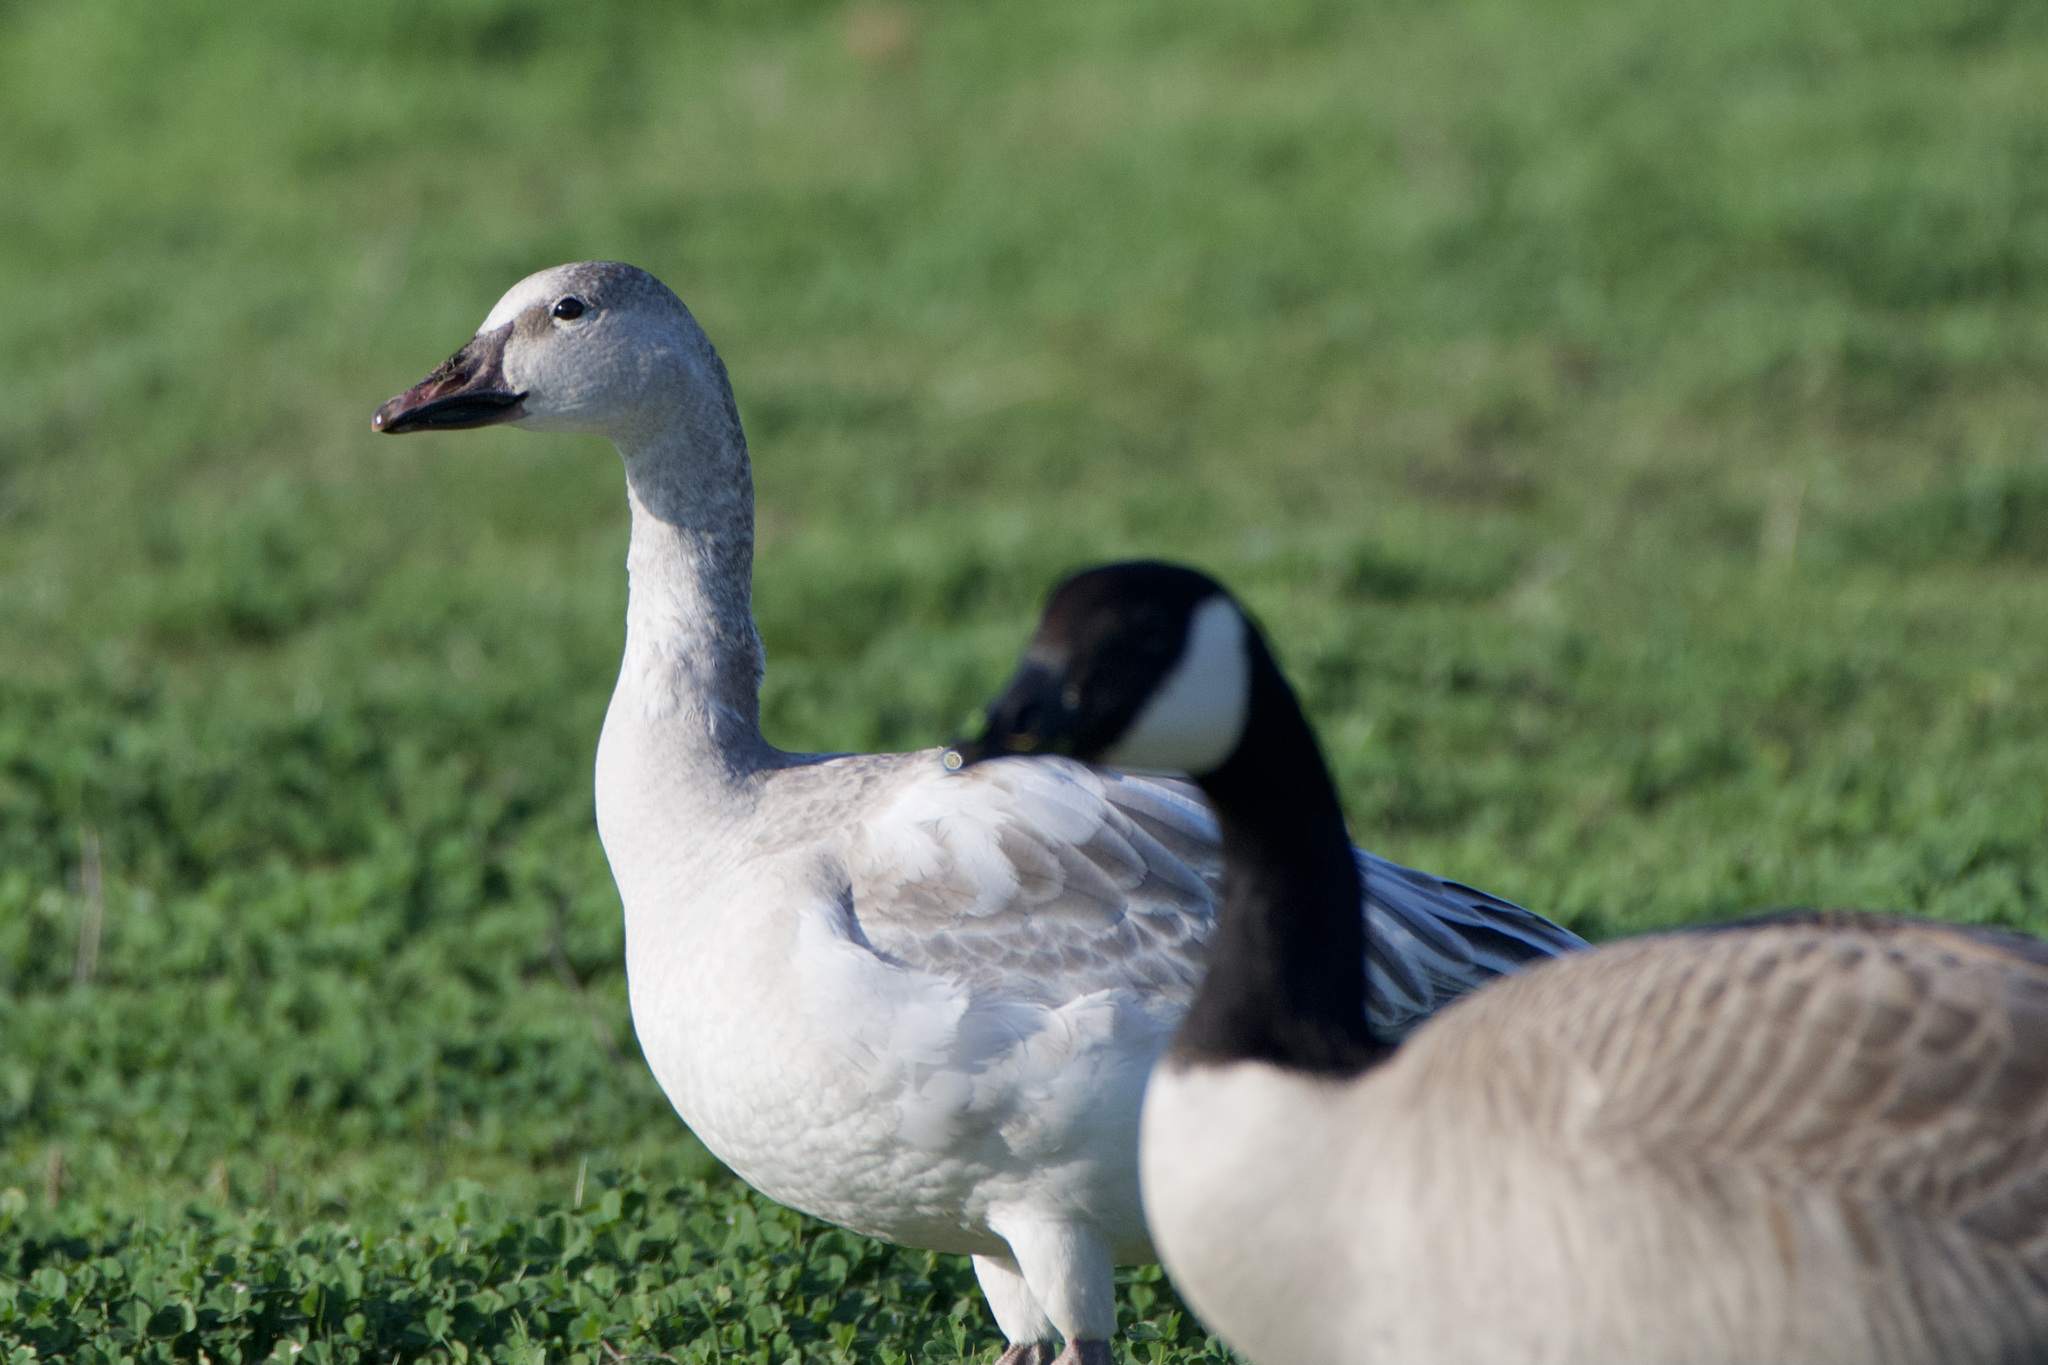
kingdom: Animalia
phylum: Chordata
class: Aves
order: Anseriformes
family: Anatidae
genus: Anser
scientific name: Anser caerulescens
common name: Snow goose
